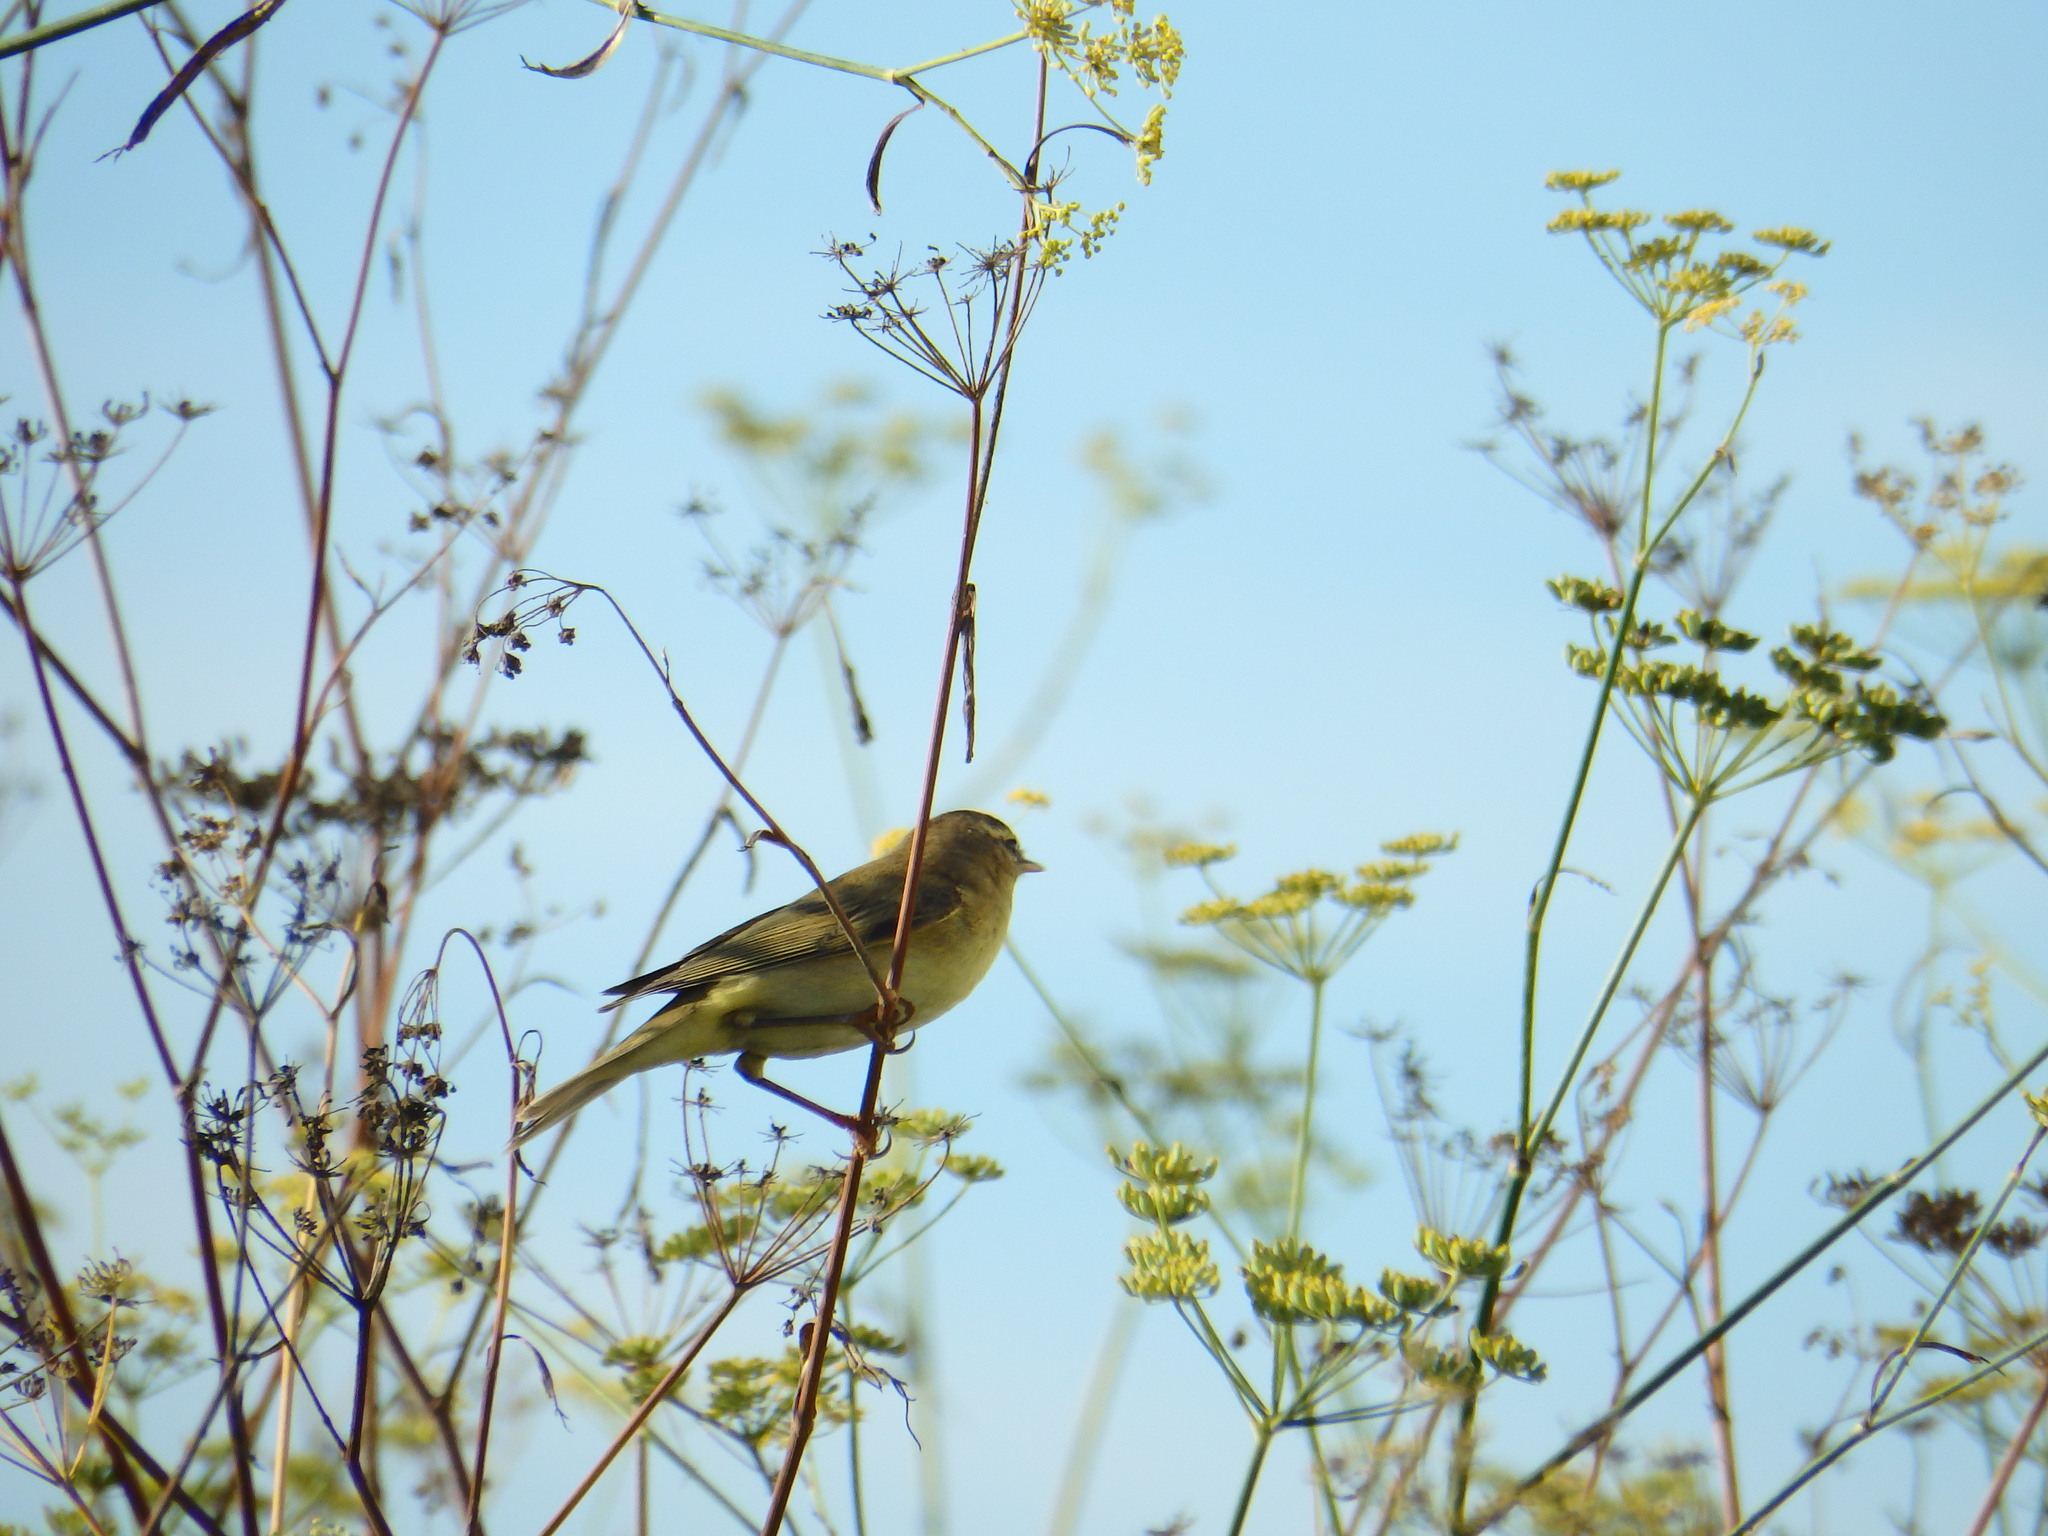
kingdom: Animalia
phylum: Chordata
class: Aves
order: Passeriformes
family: Phylloscopidae
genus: Phylloscopus
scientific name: Phylloscopus trochilus
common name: Willow warbler
